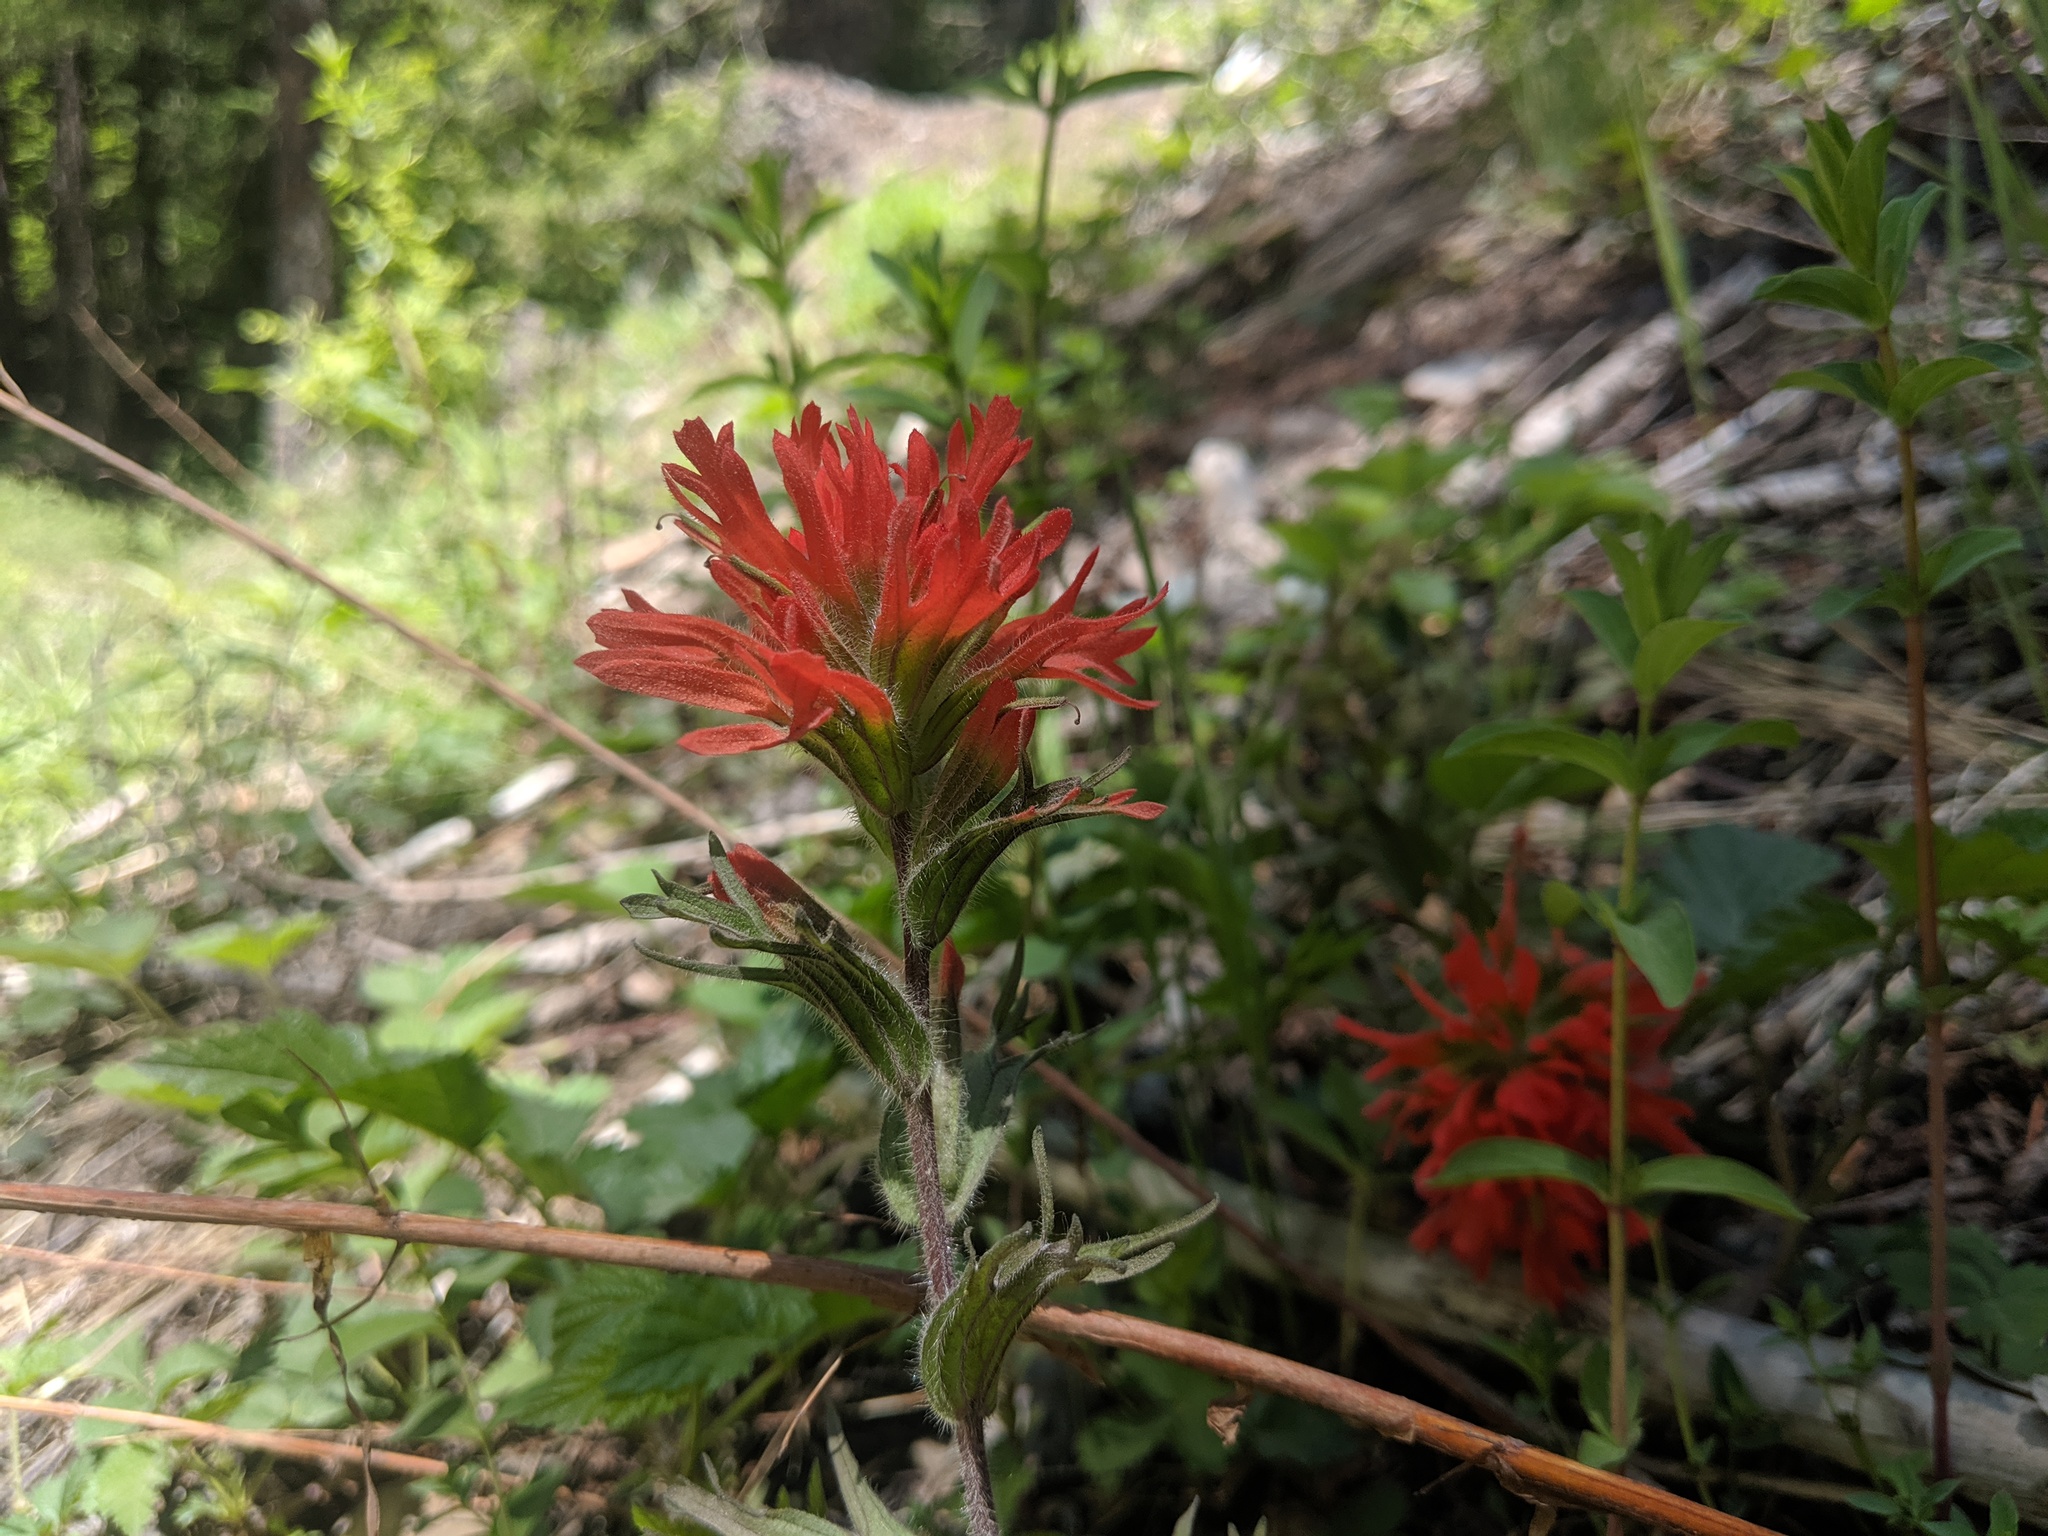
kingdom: Plantae
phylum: Tracheophyta
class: Magnoliopsida
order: Lamiales
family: Orobanchaceae
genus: Castilleja
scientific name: Castilleja hispida
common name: Bristly paintbrush
